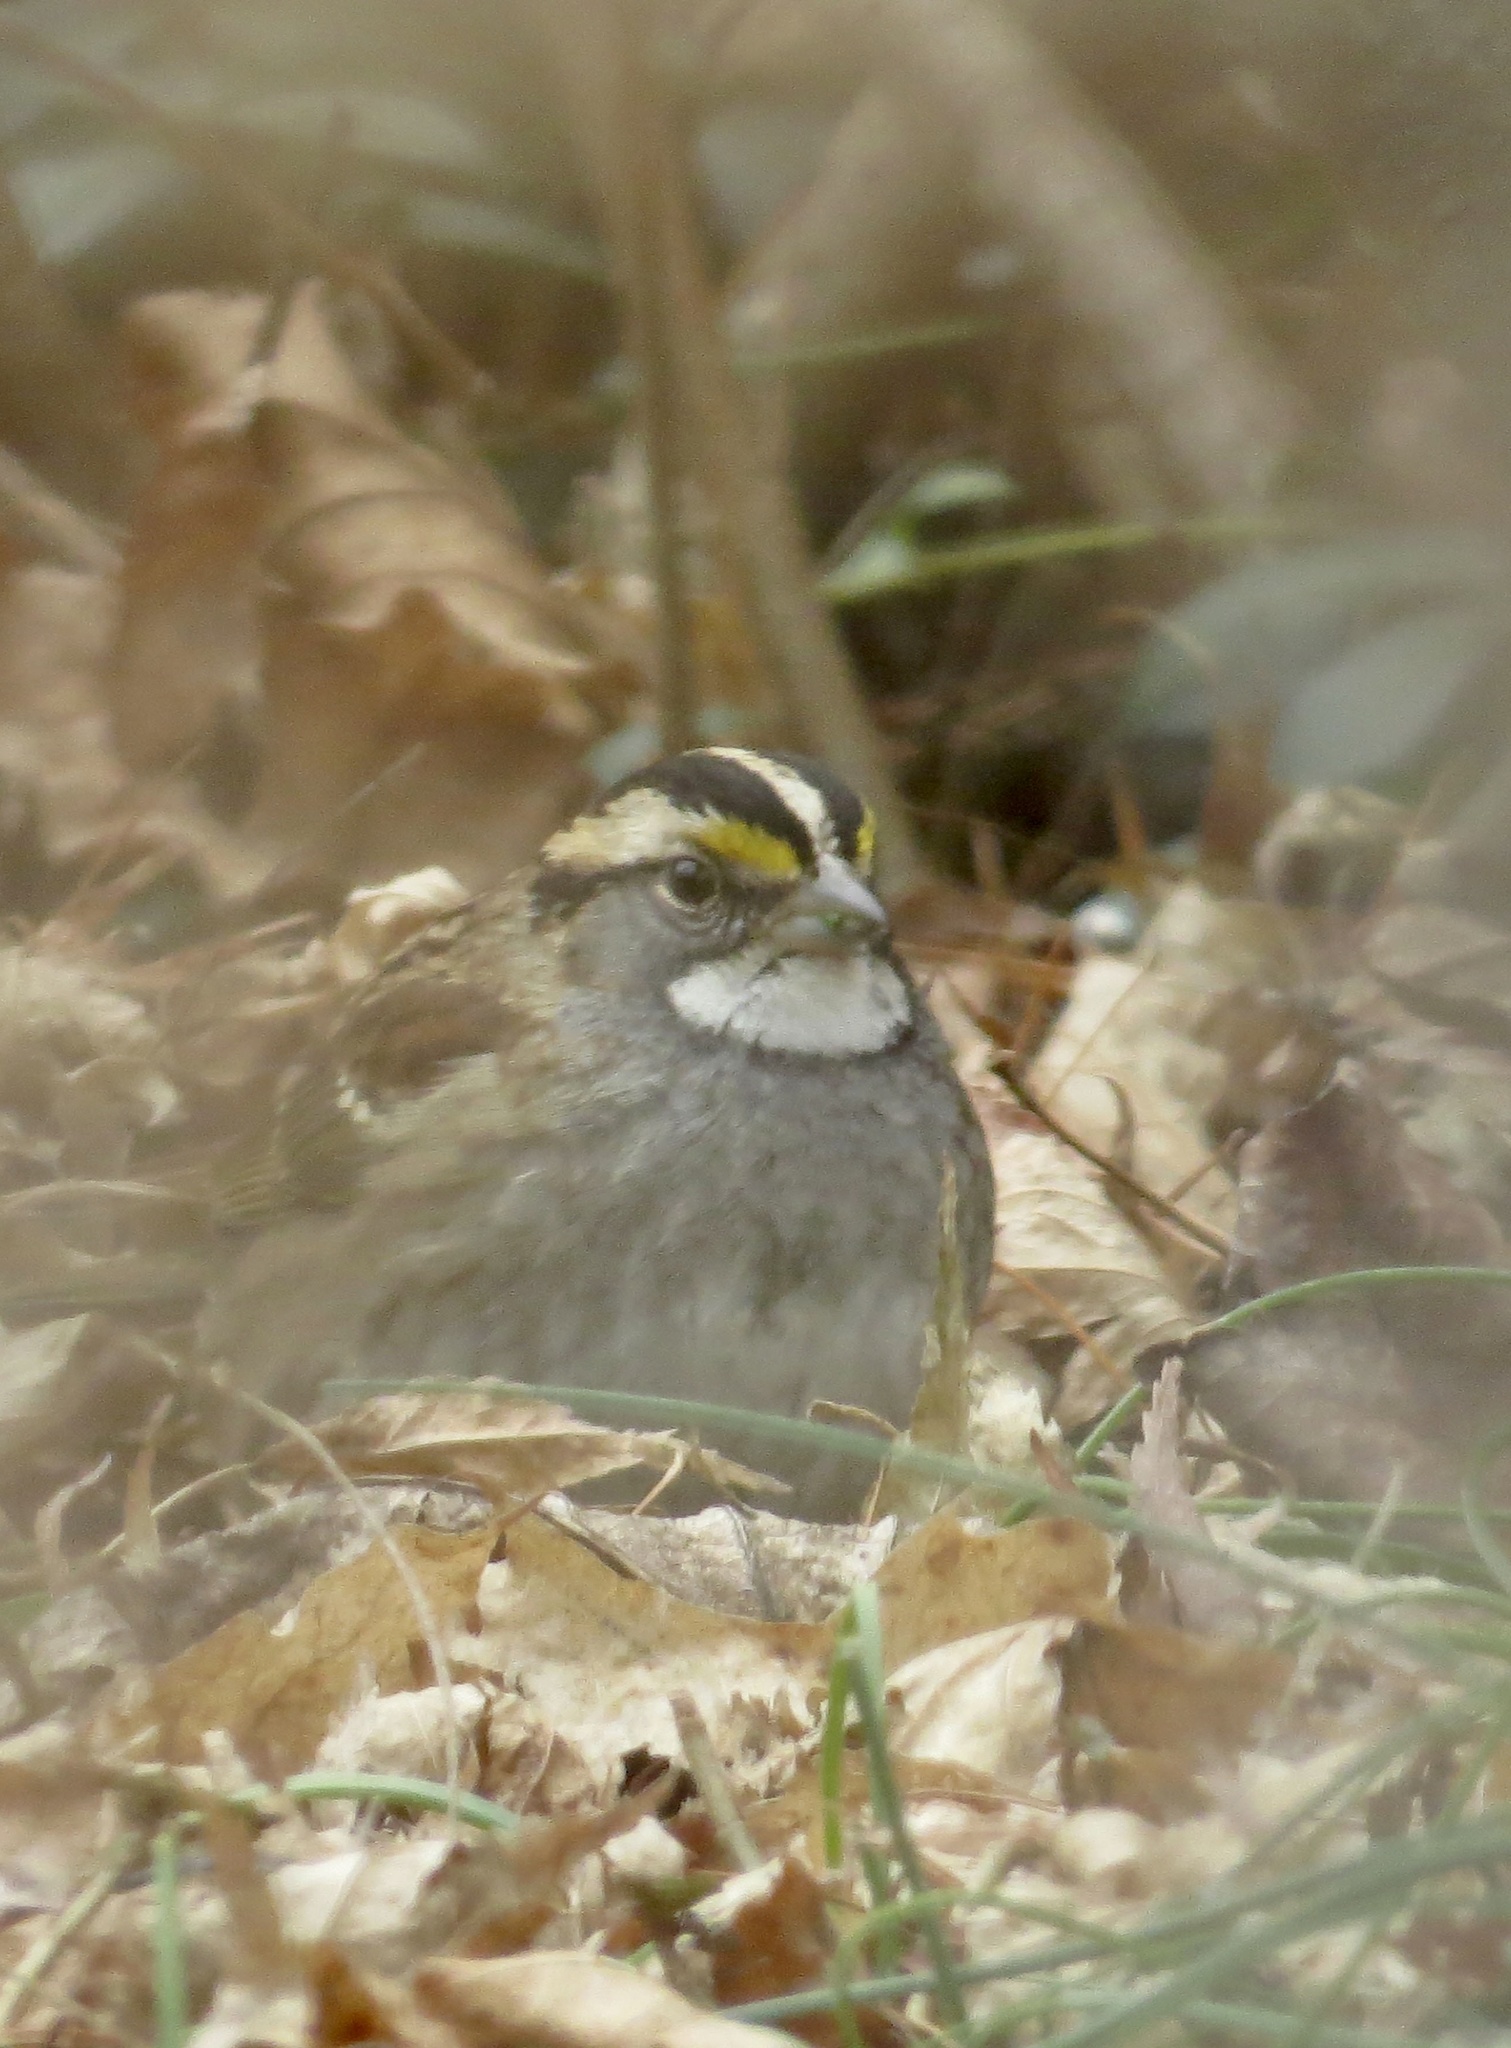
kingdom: Animalia
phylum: Chordata
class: Aves
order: Passeriformes
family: Passerellidae
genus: Zonotrichia
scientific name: Zonotrichia albicollis
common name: White-throated sparrow
